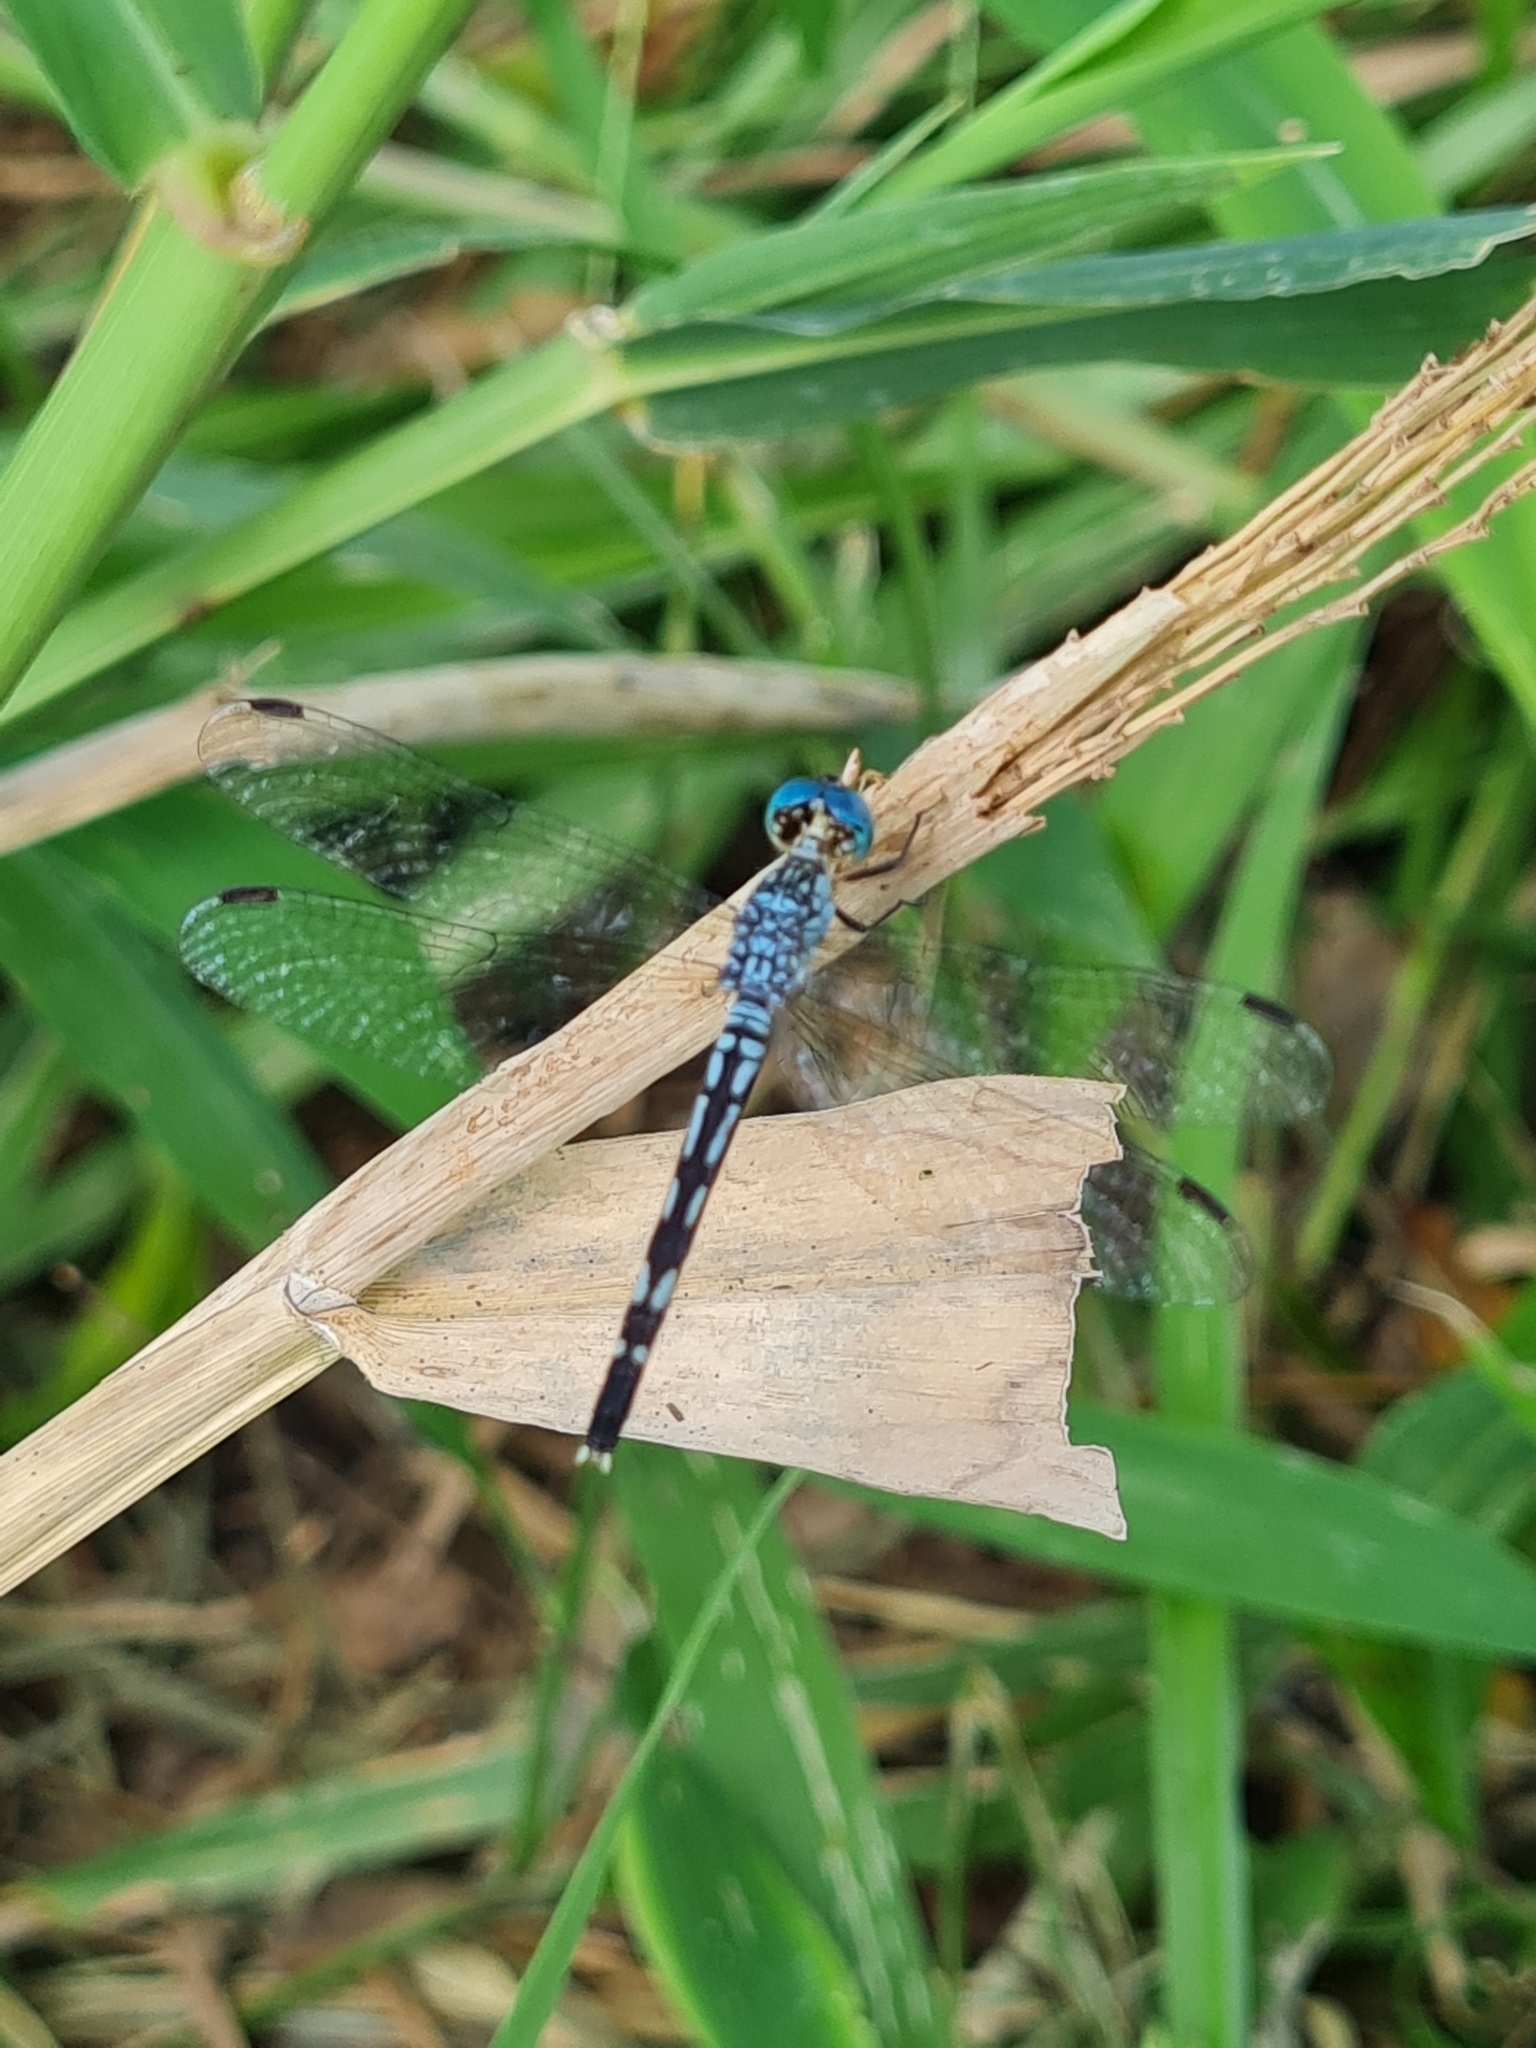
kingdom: Animalia
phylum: Arthropoda
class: Insecta
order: Odonata
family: Libellulidae
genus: Anatya
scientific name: Anatya guttata
